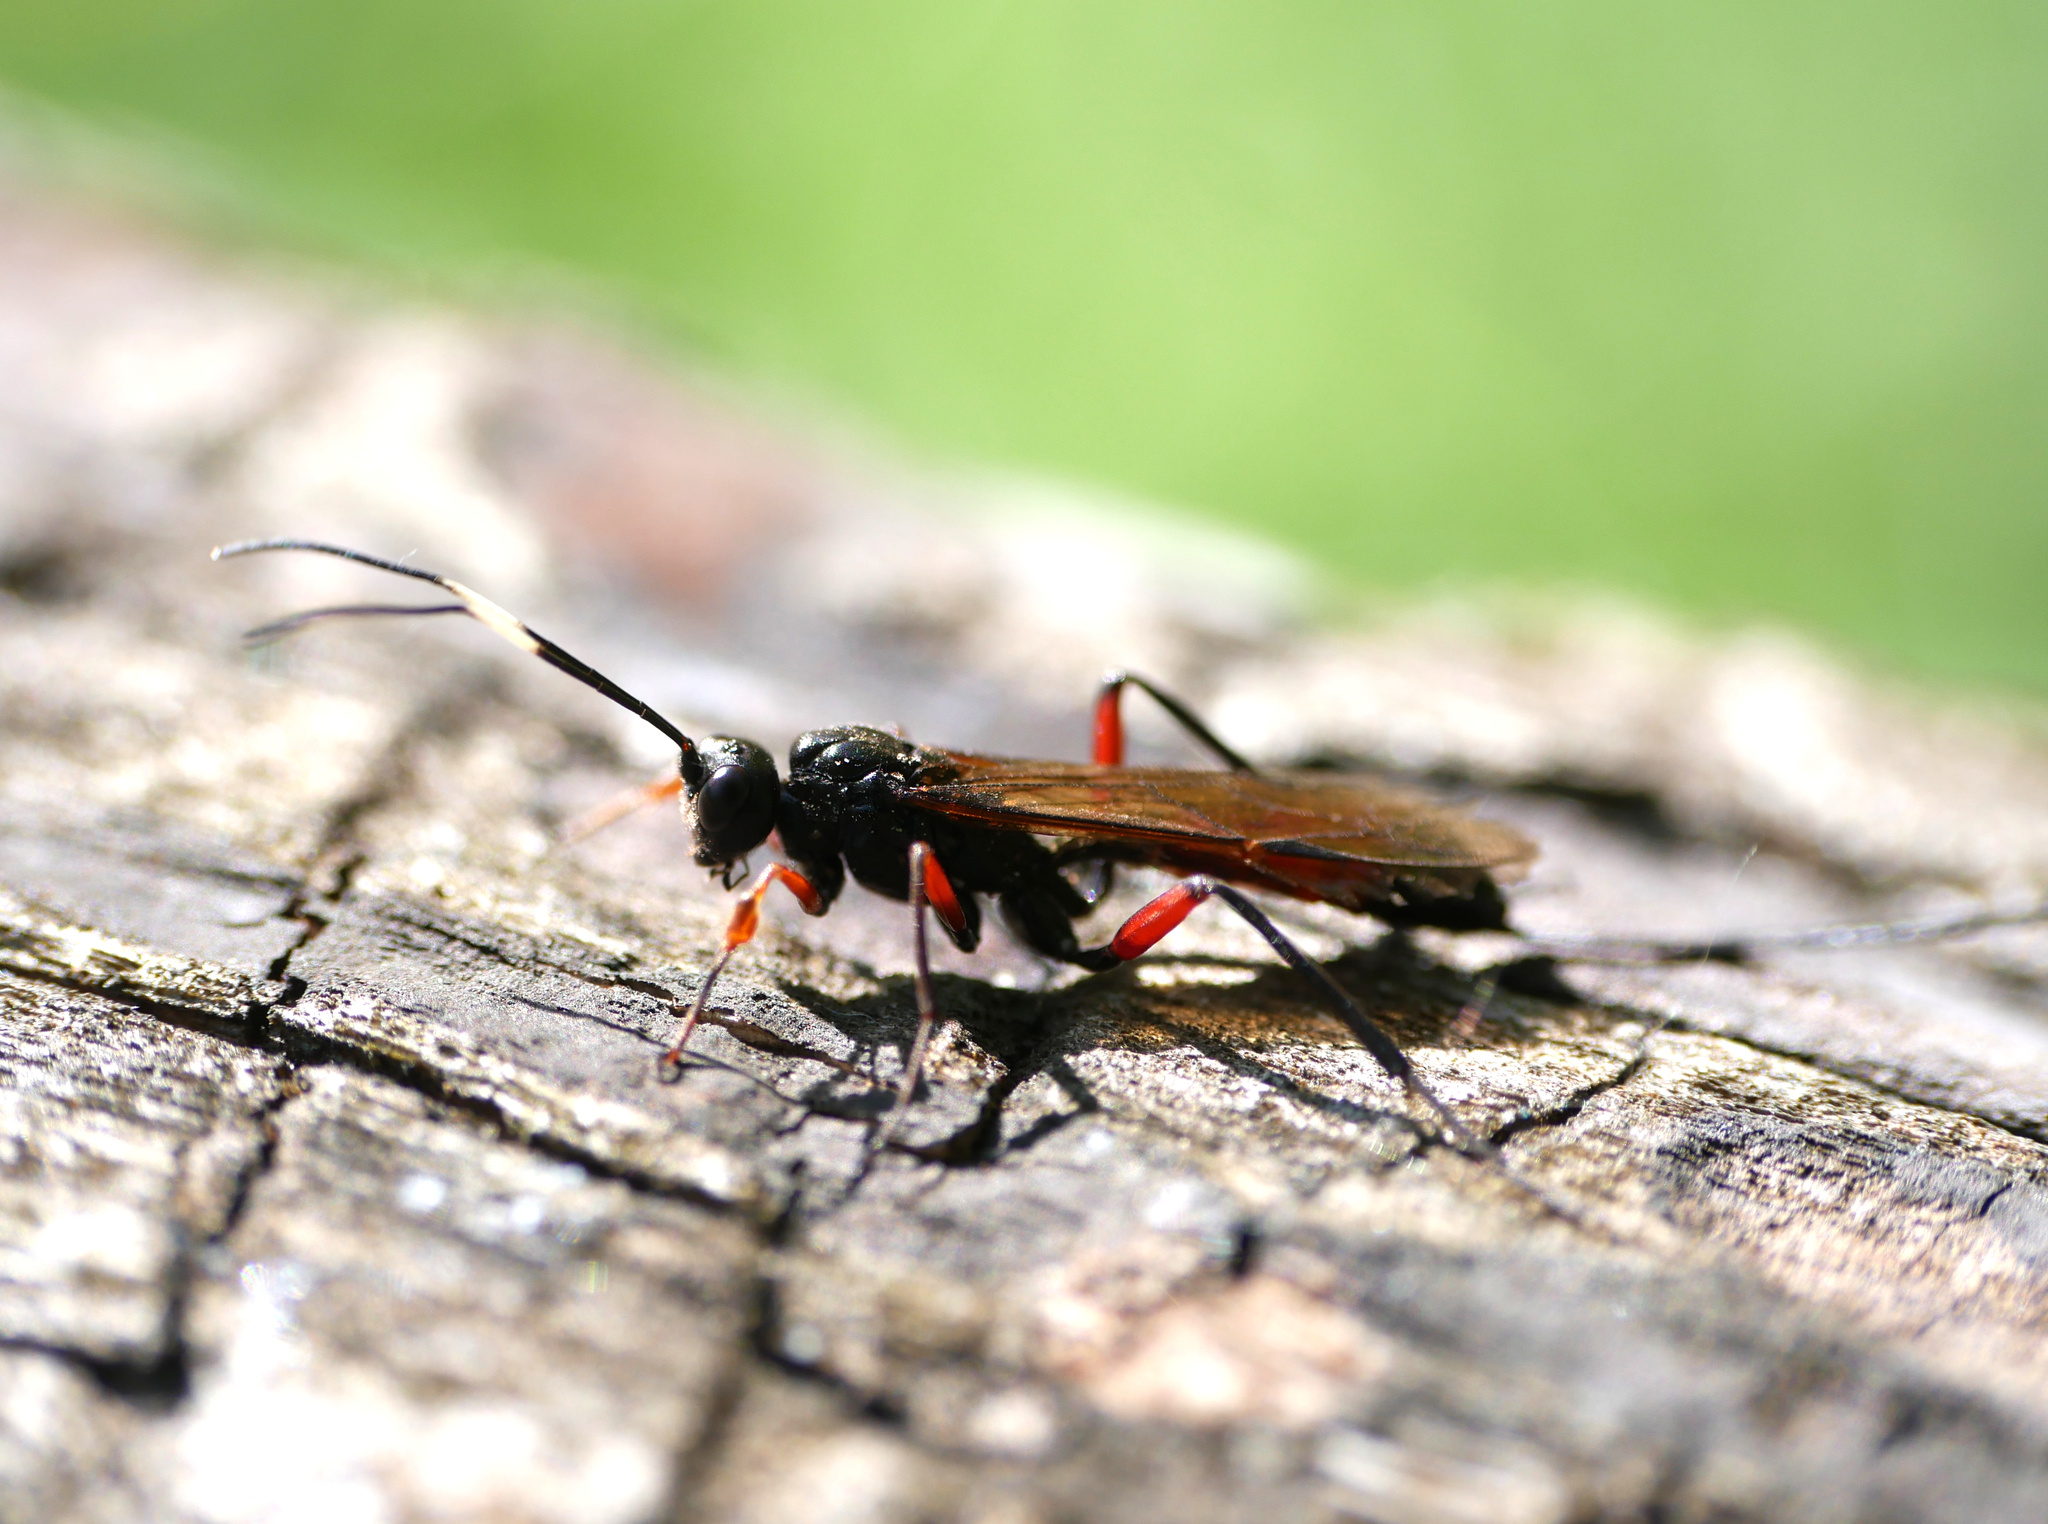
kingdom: Animalia
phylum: Arthropoda
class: Insecta
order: Hymenoptera
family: Ichneumonidae
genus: Echthrus
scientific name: Echthrus reluctator
